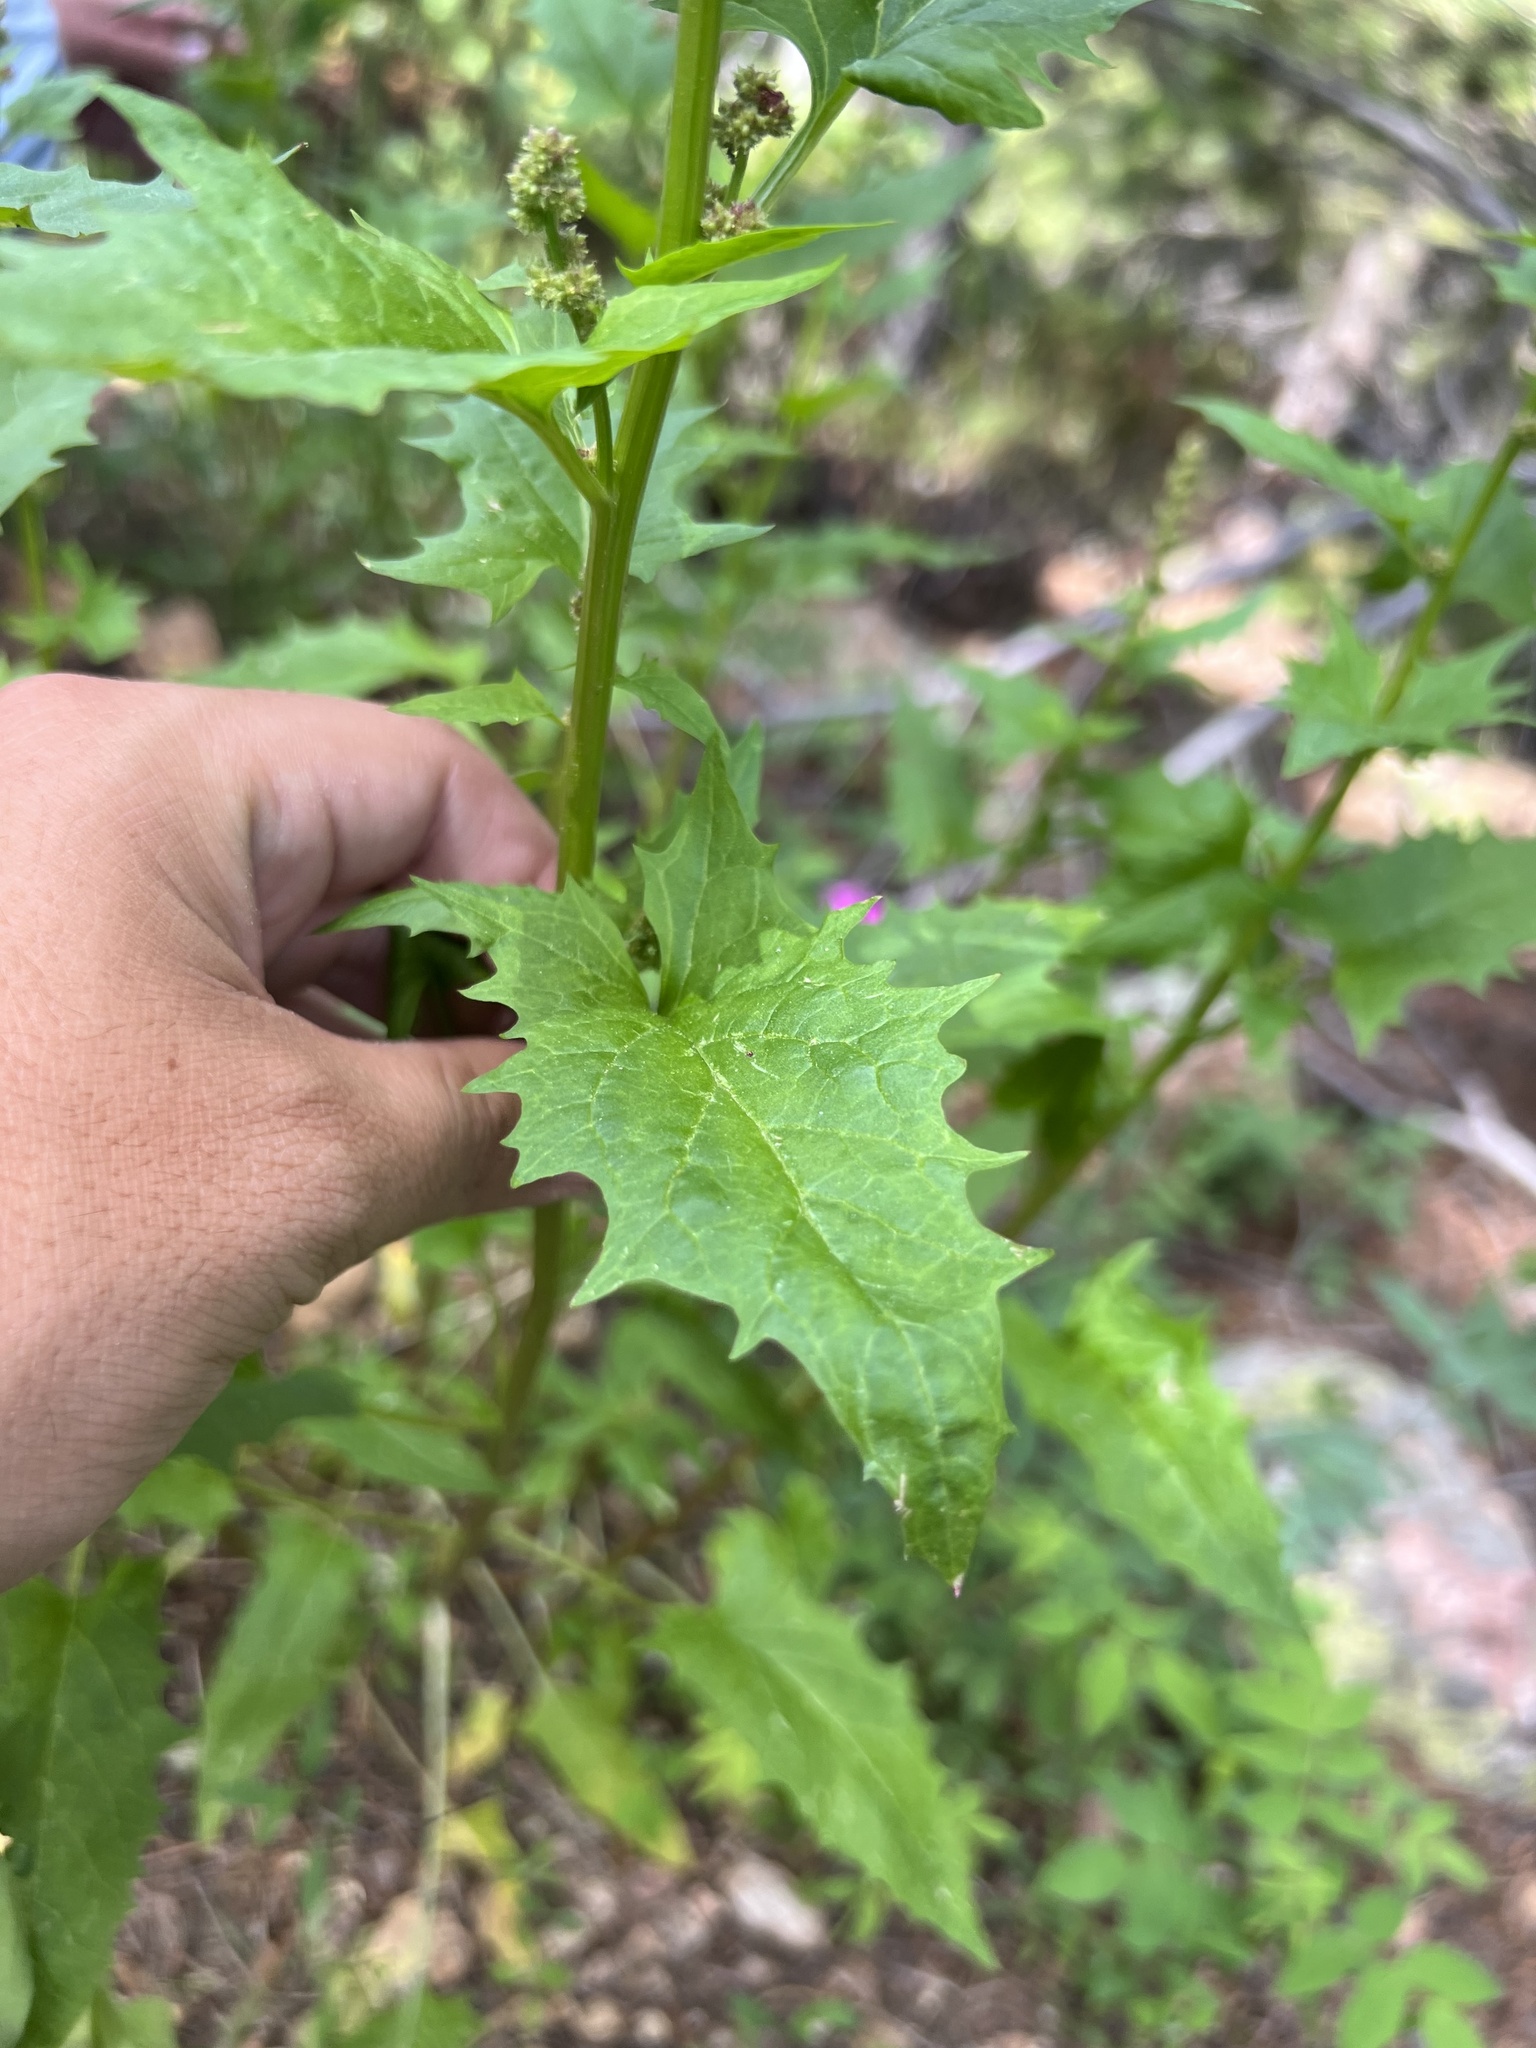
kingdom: Plantae
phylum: Tracheophyta
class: Magnoliopsida
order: Caryophyllales
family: Amaranthaceae
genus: Blitum
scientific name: Blitum capitatum
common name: Strawberry-blight
